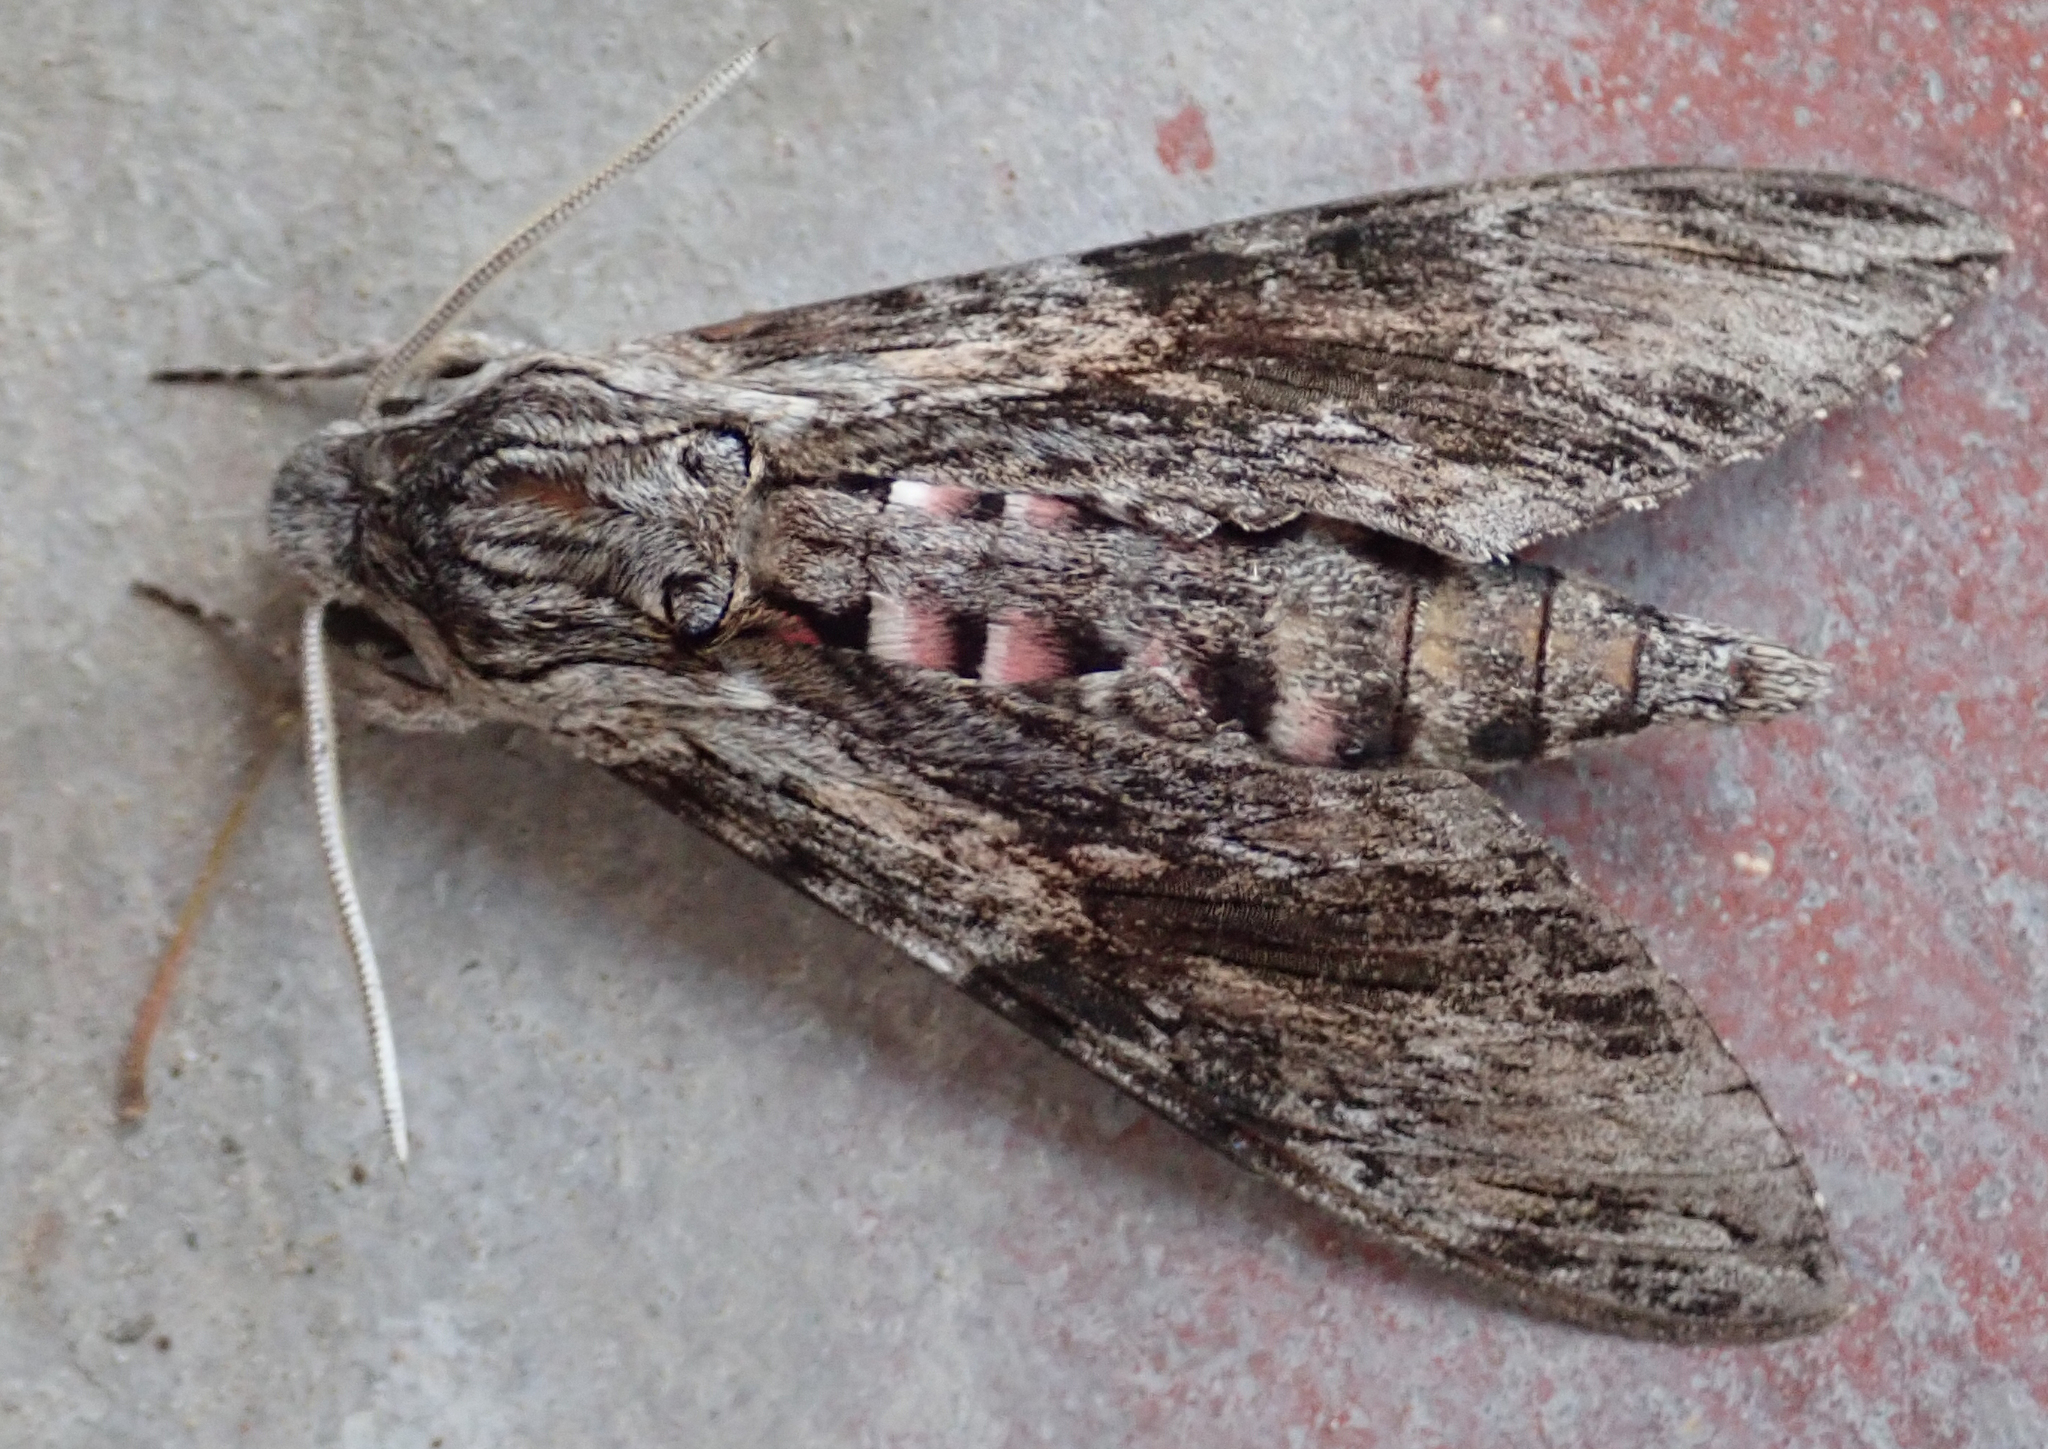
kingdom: Animalia
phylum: Arthropoda
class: Insecta
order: Lepidoptera
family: Sphingidae
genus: Agrius
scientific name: Agrius convolvuli
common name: Convolvulus hawkmoth
